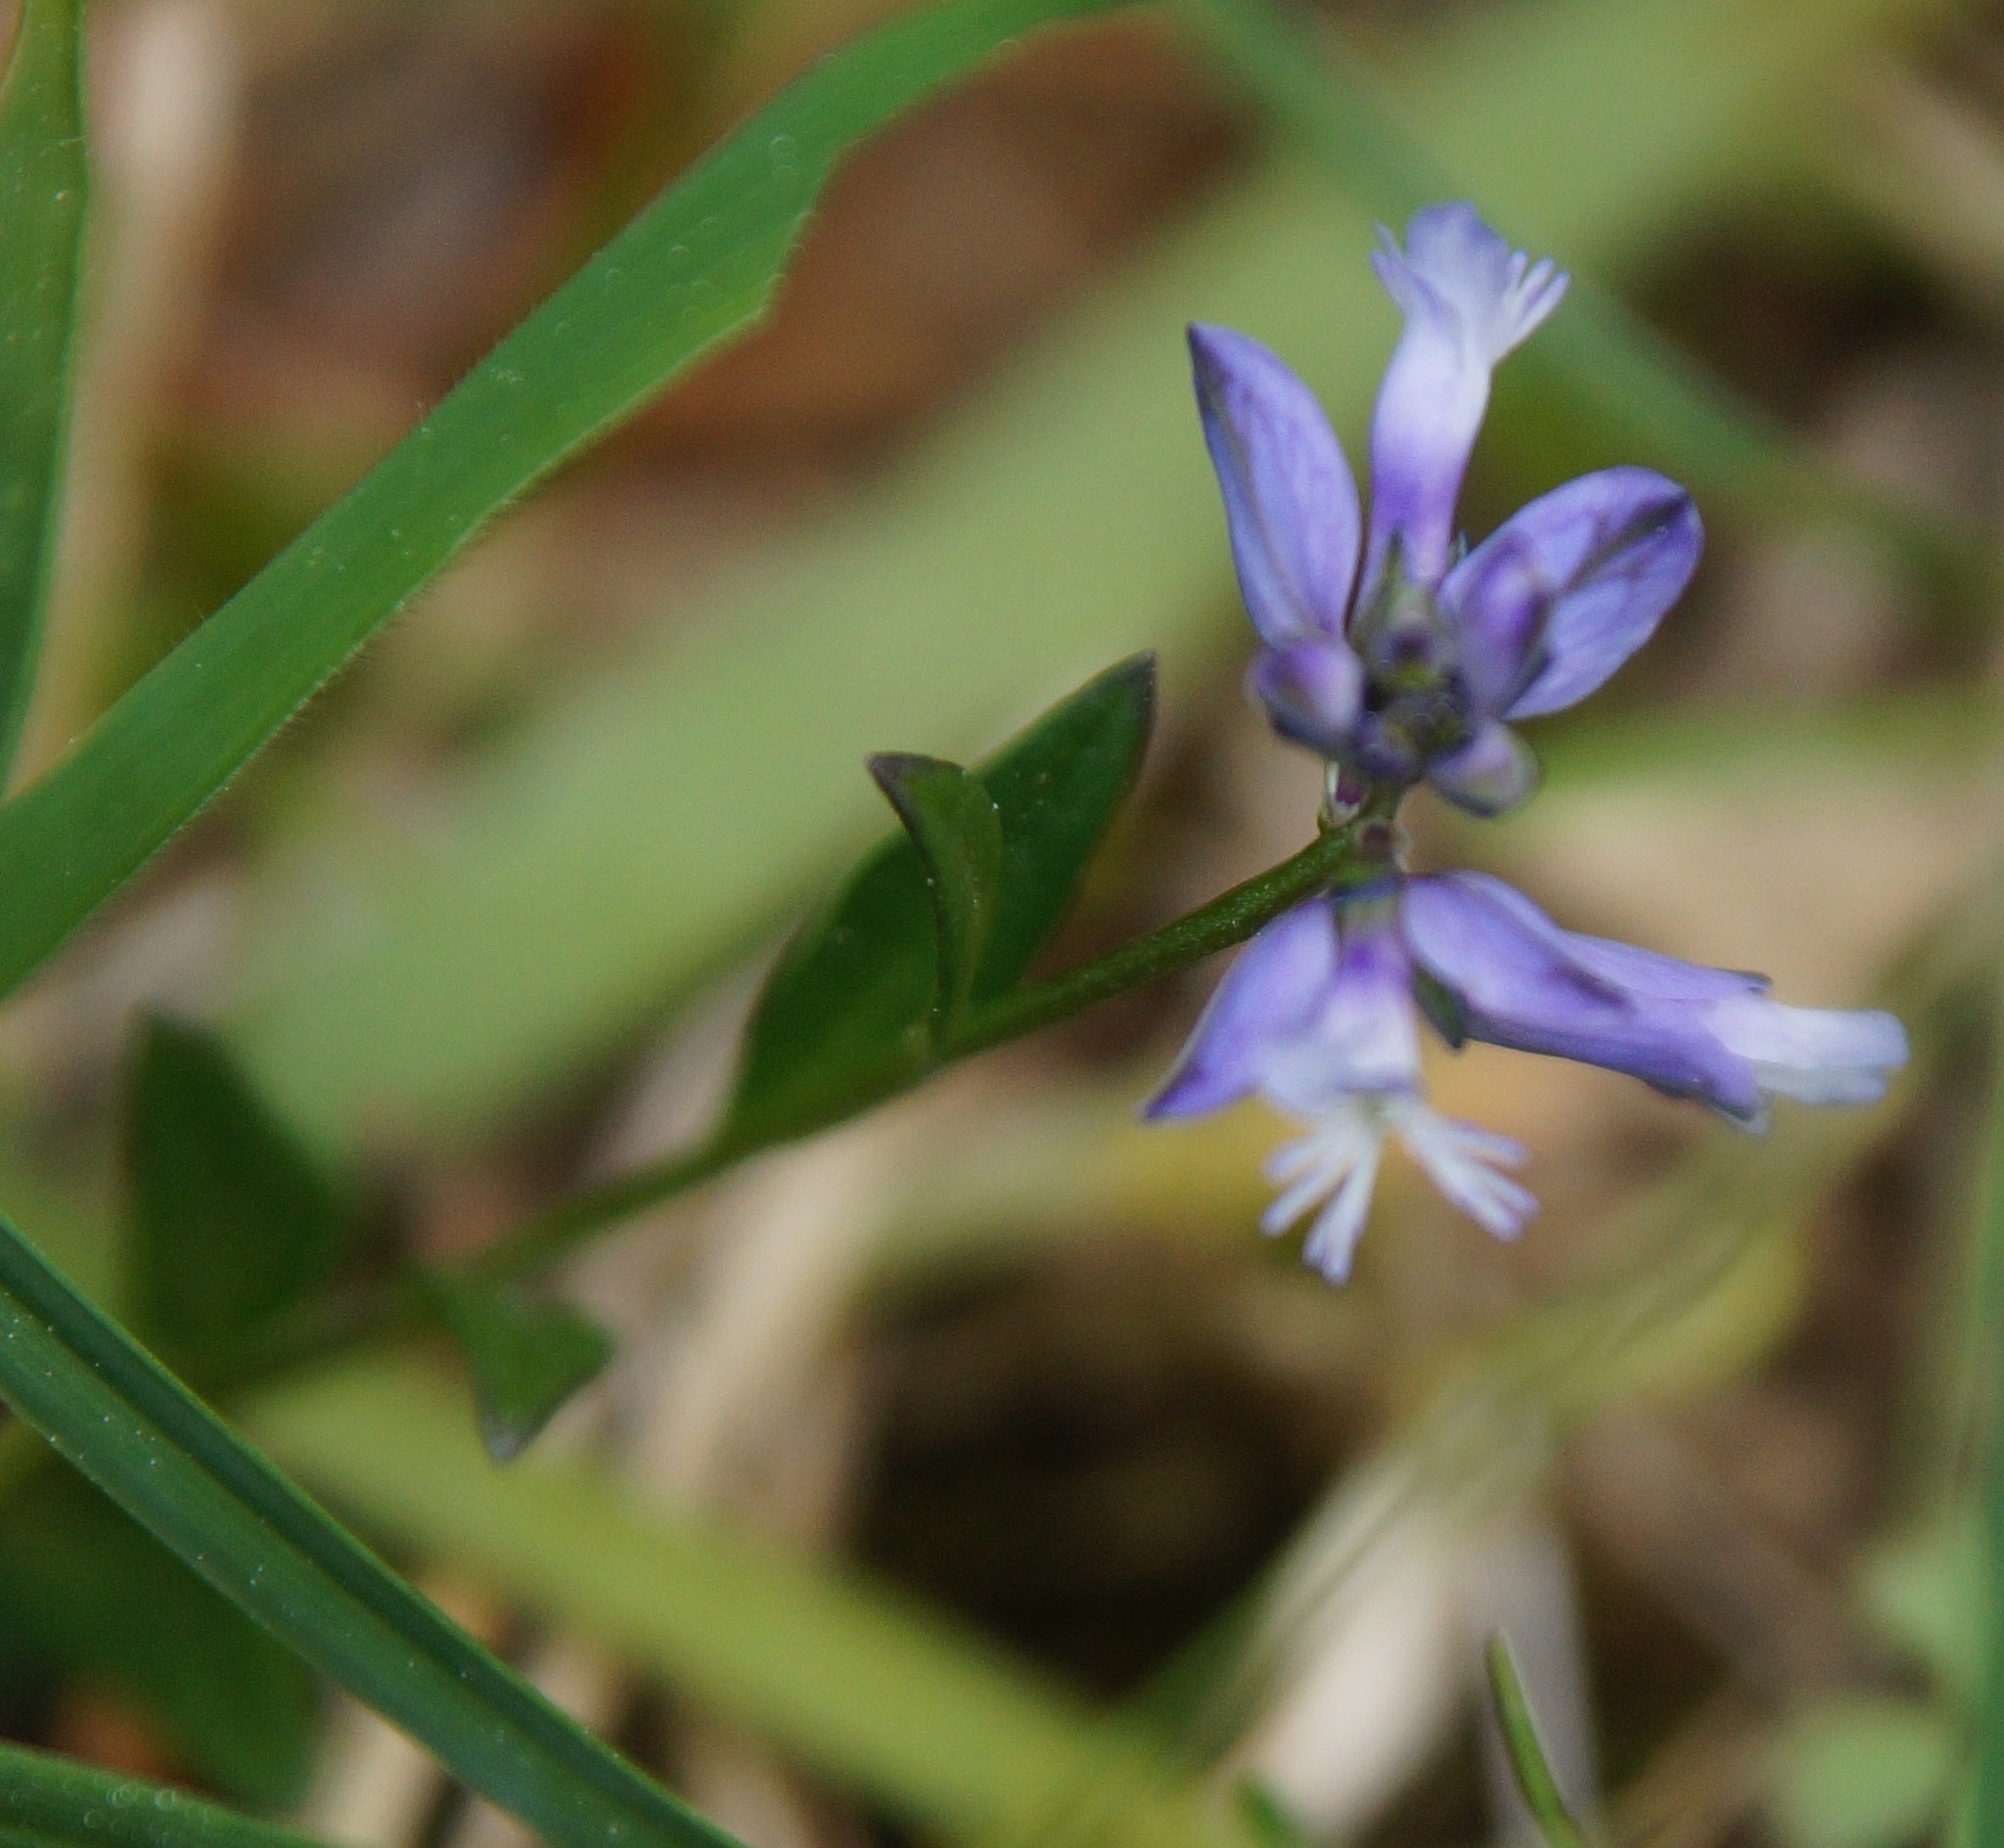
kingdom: Plantae
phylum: Tracheophyta
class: Magnoliopsida
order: Fabales
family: Polygalaceae
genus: Polygala
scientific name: Polygala vulgaris
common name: Common milkwort
